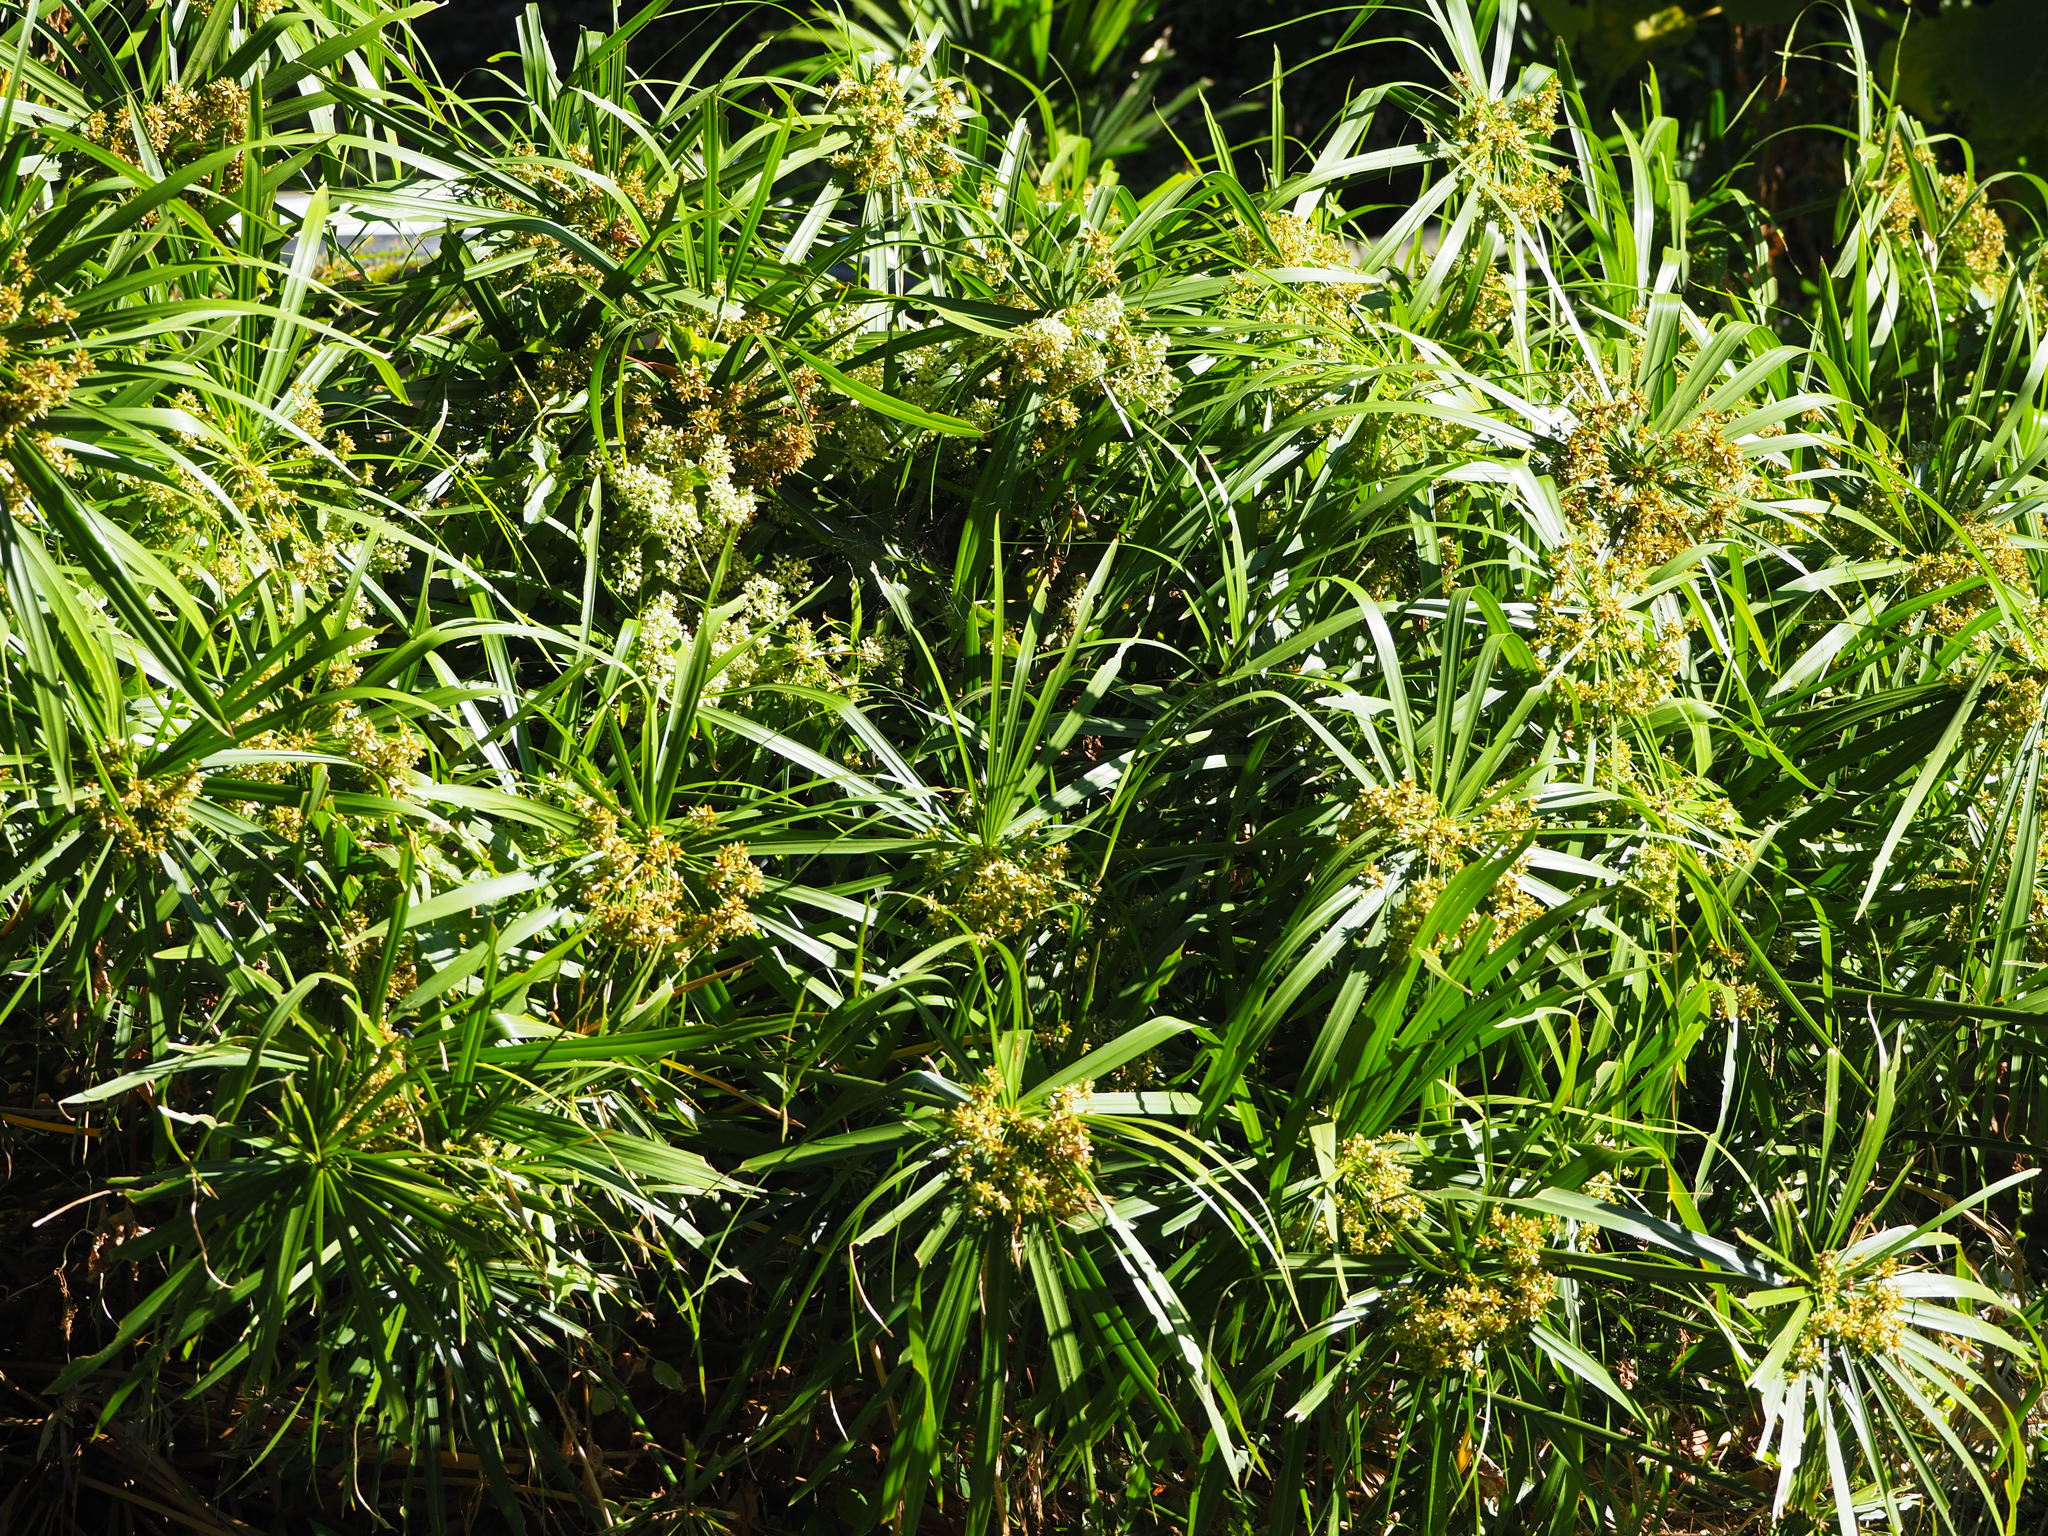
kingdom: Plantae
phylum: Tracheophyta
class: Liliopsida
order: Poales
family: Cyperaceae
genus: Cyperus
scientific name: Cyperus alternifolius
